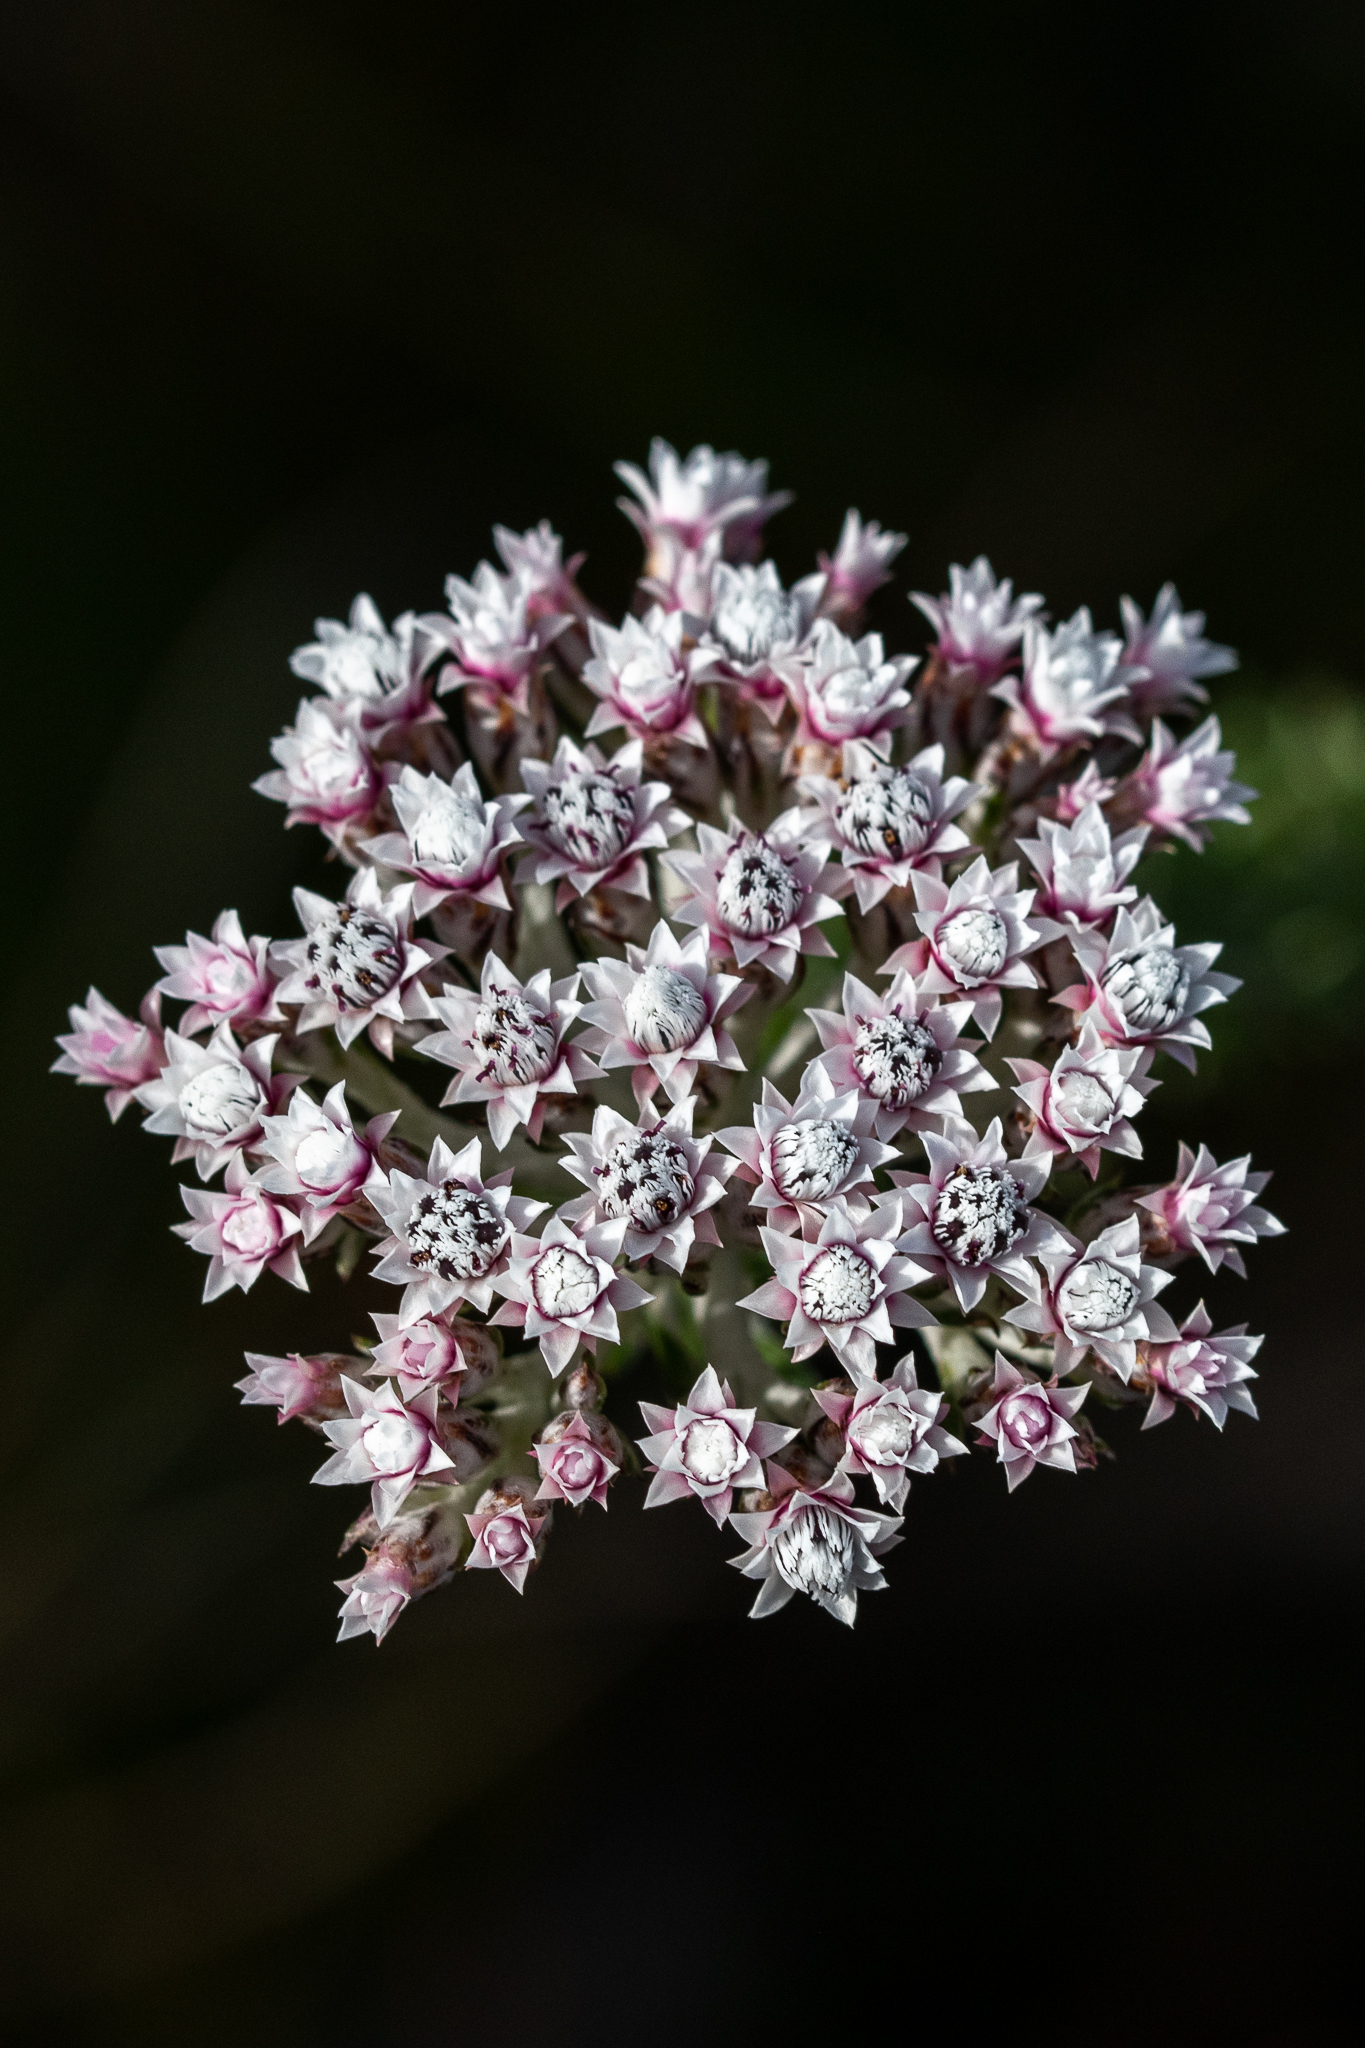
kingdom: Plantae
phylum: Tracheophyta
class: Magnoliopsida
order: Asterales
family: Asteraceae
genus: Metalasia
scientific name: Metalasia lichtensteinii
